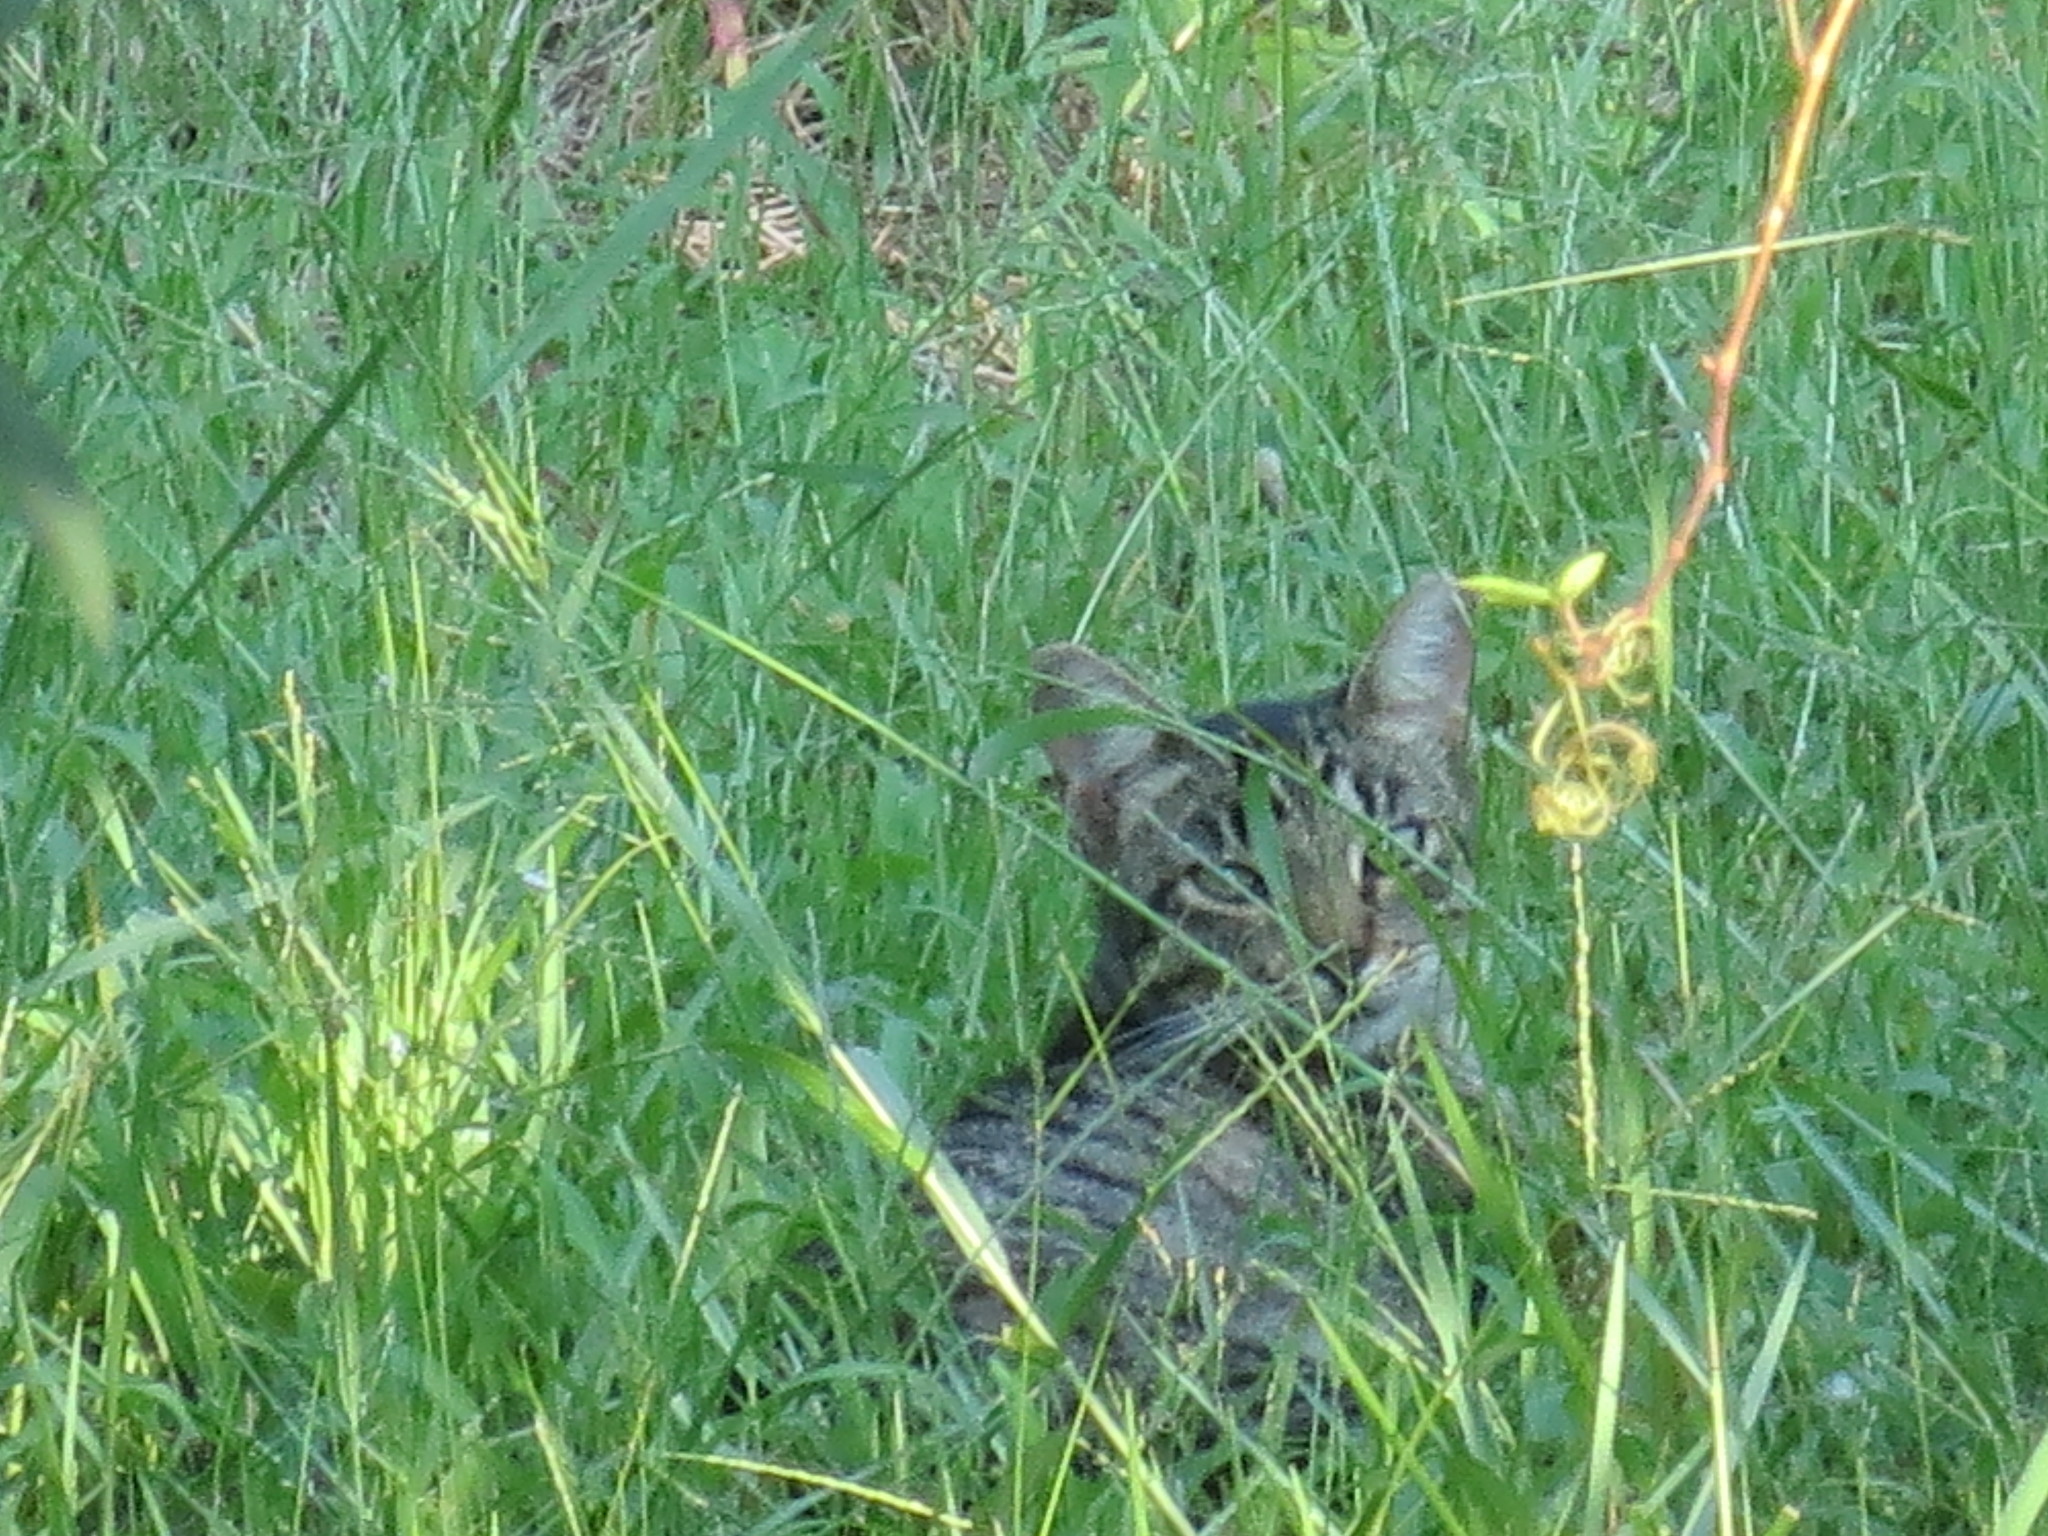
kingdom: Animalia
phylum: Chordata
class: Mammalia
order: Carnivora
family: Felidae
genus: Felis
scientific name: Felis catus
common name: Domestic cat
